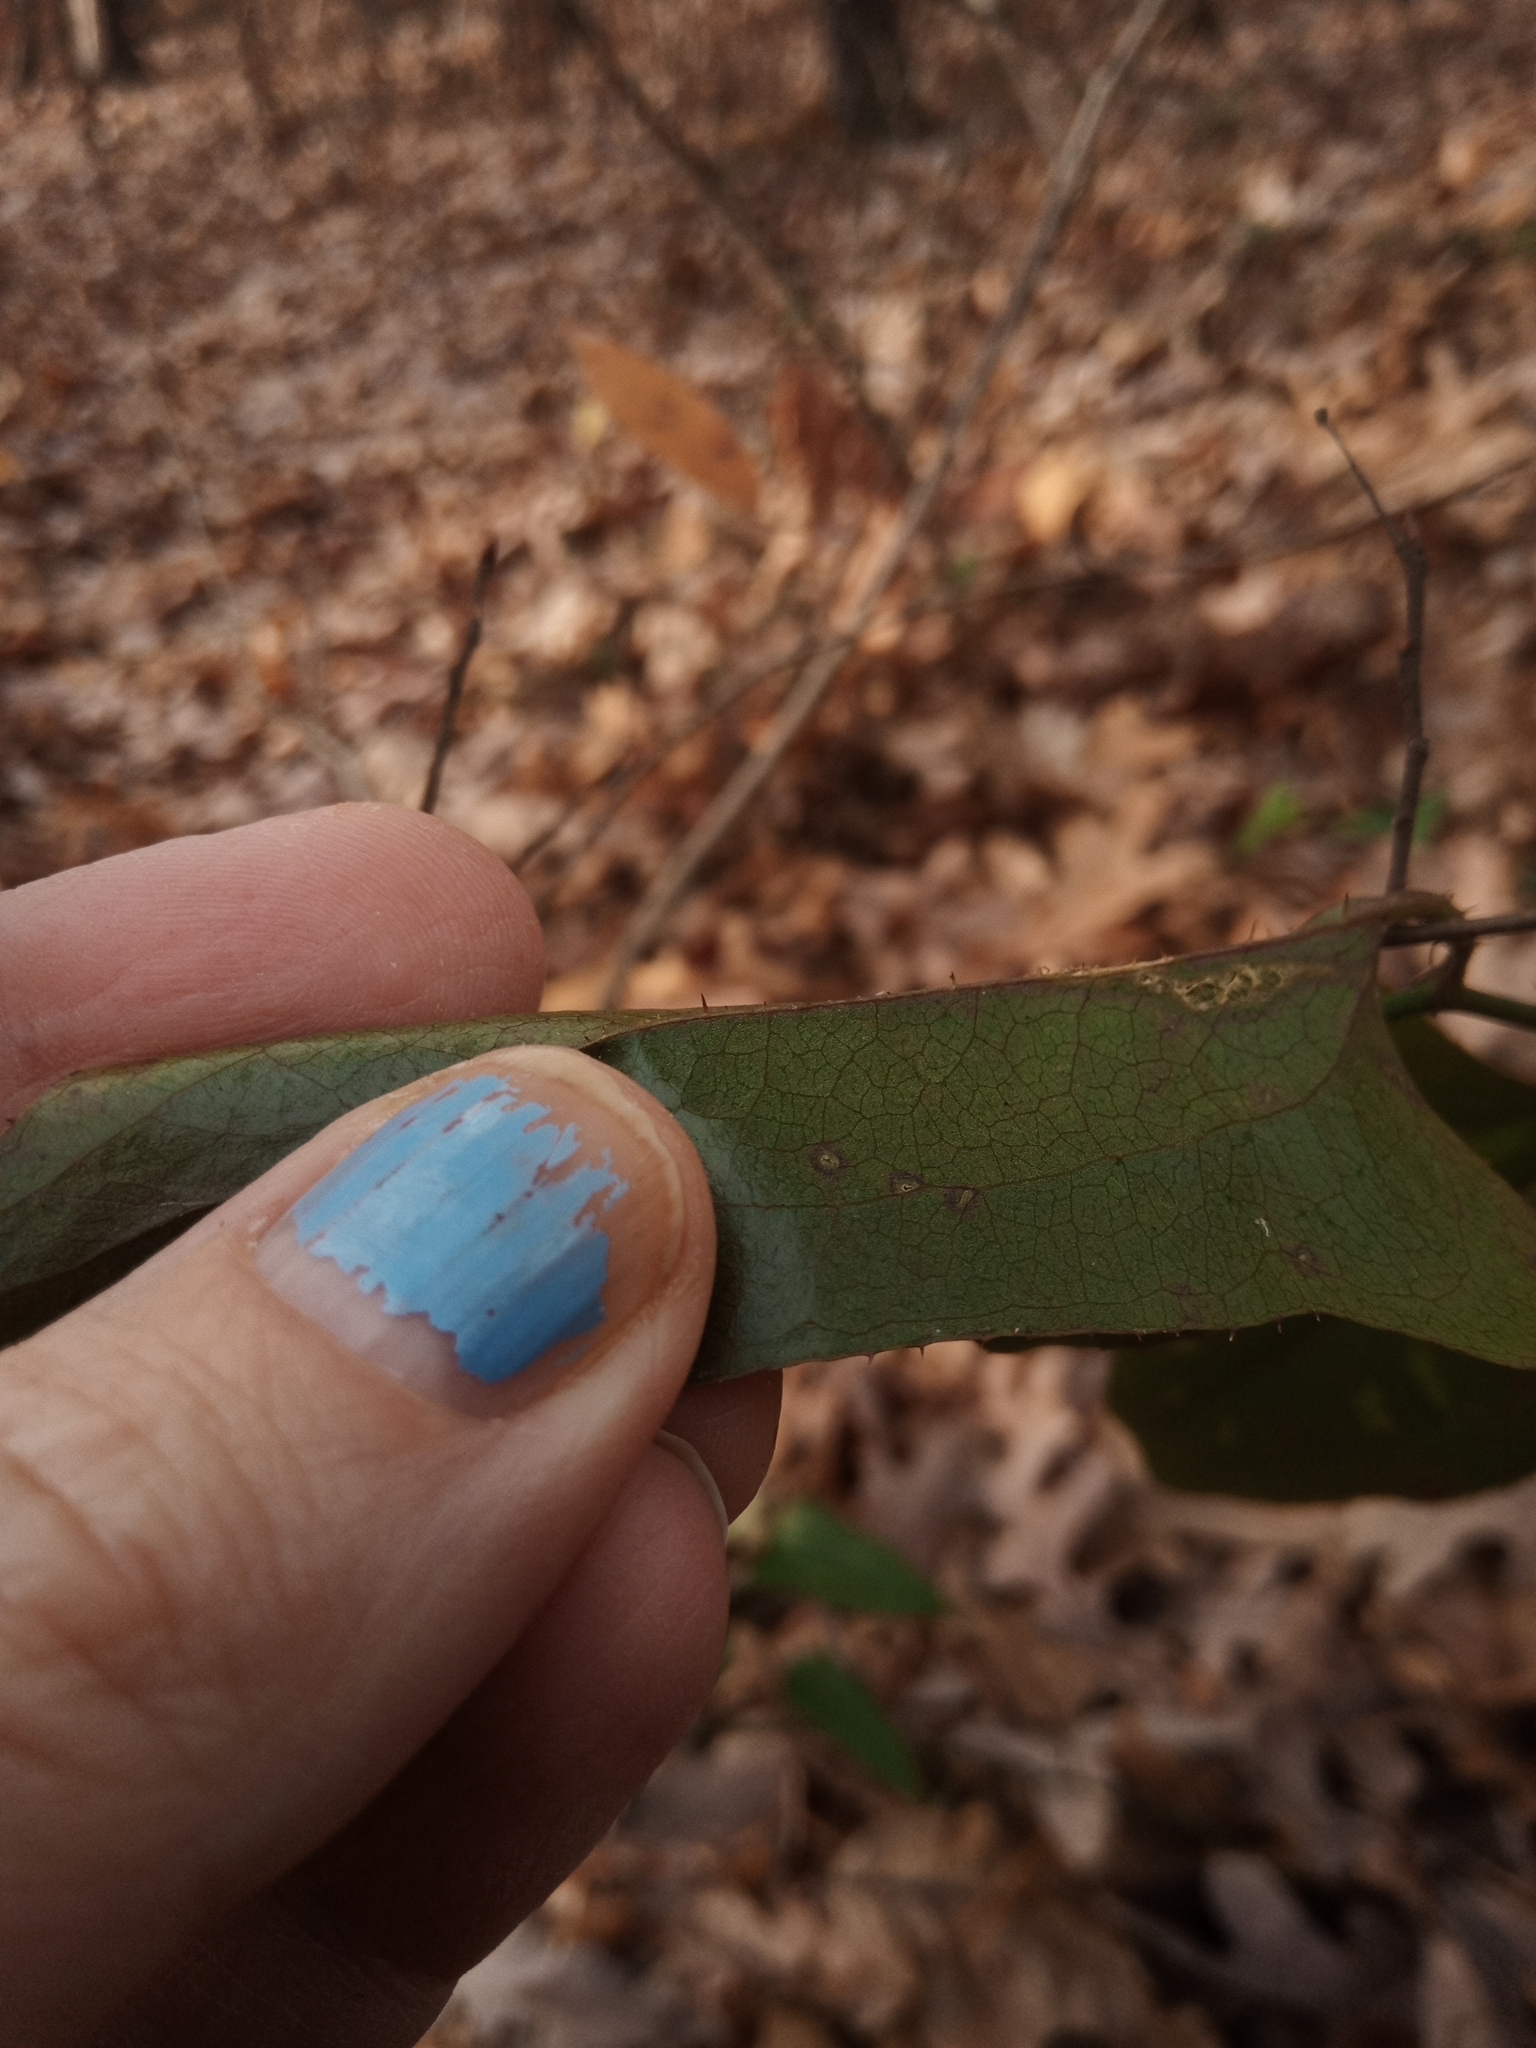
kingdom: Plantae
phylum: Tracheophyta
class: Liliopsida
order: Liliales
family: Smilacaceae
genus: Smilax
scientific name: Smilax bona-nox
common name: Catbrier
